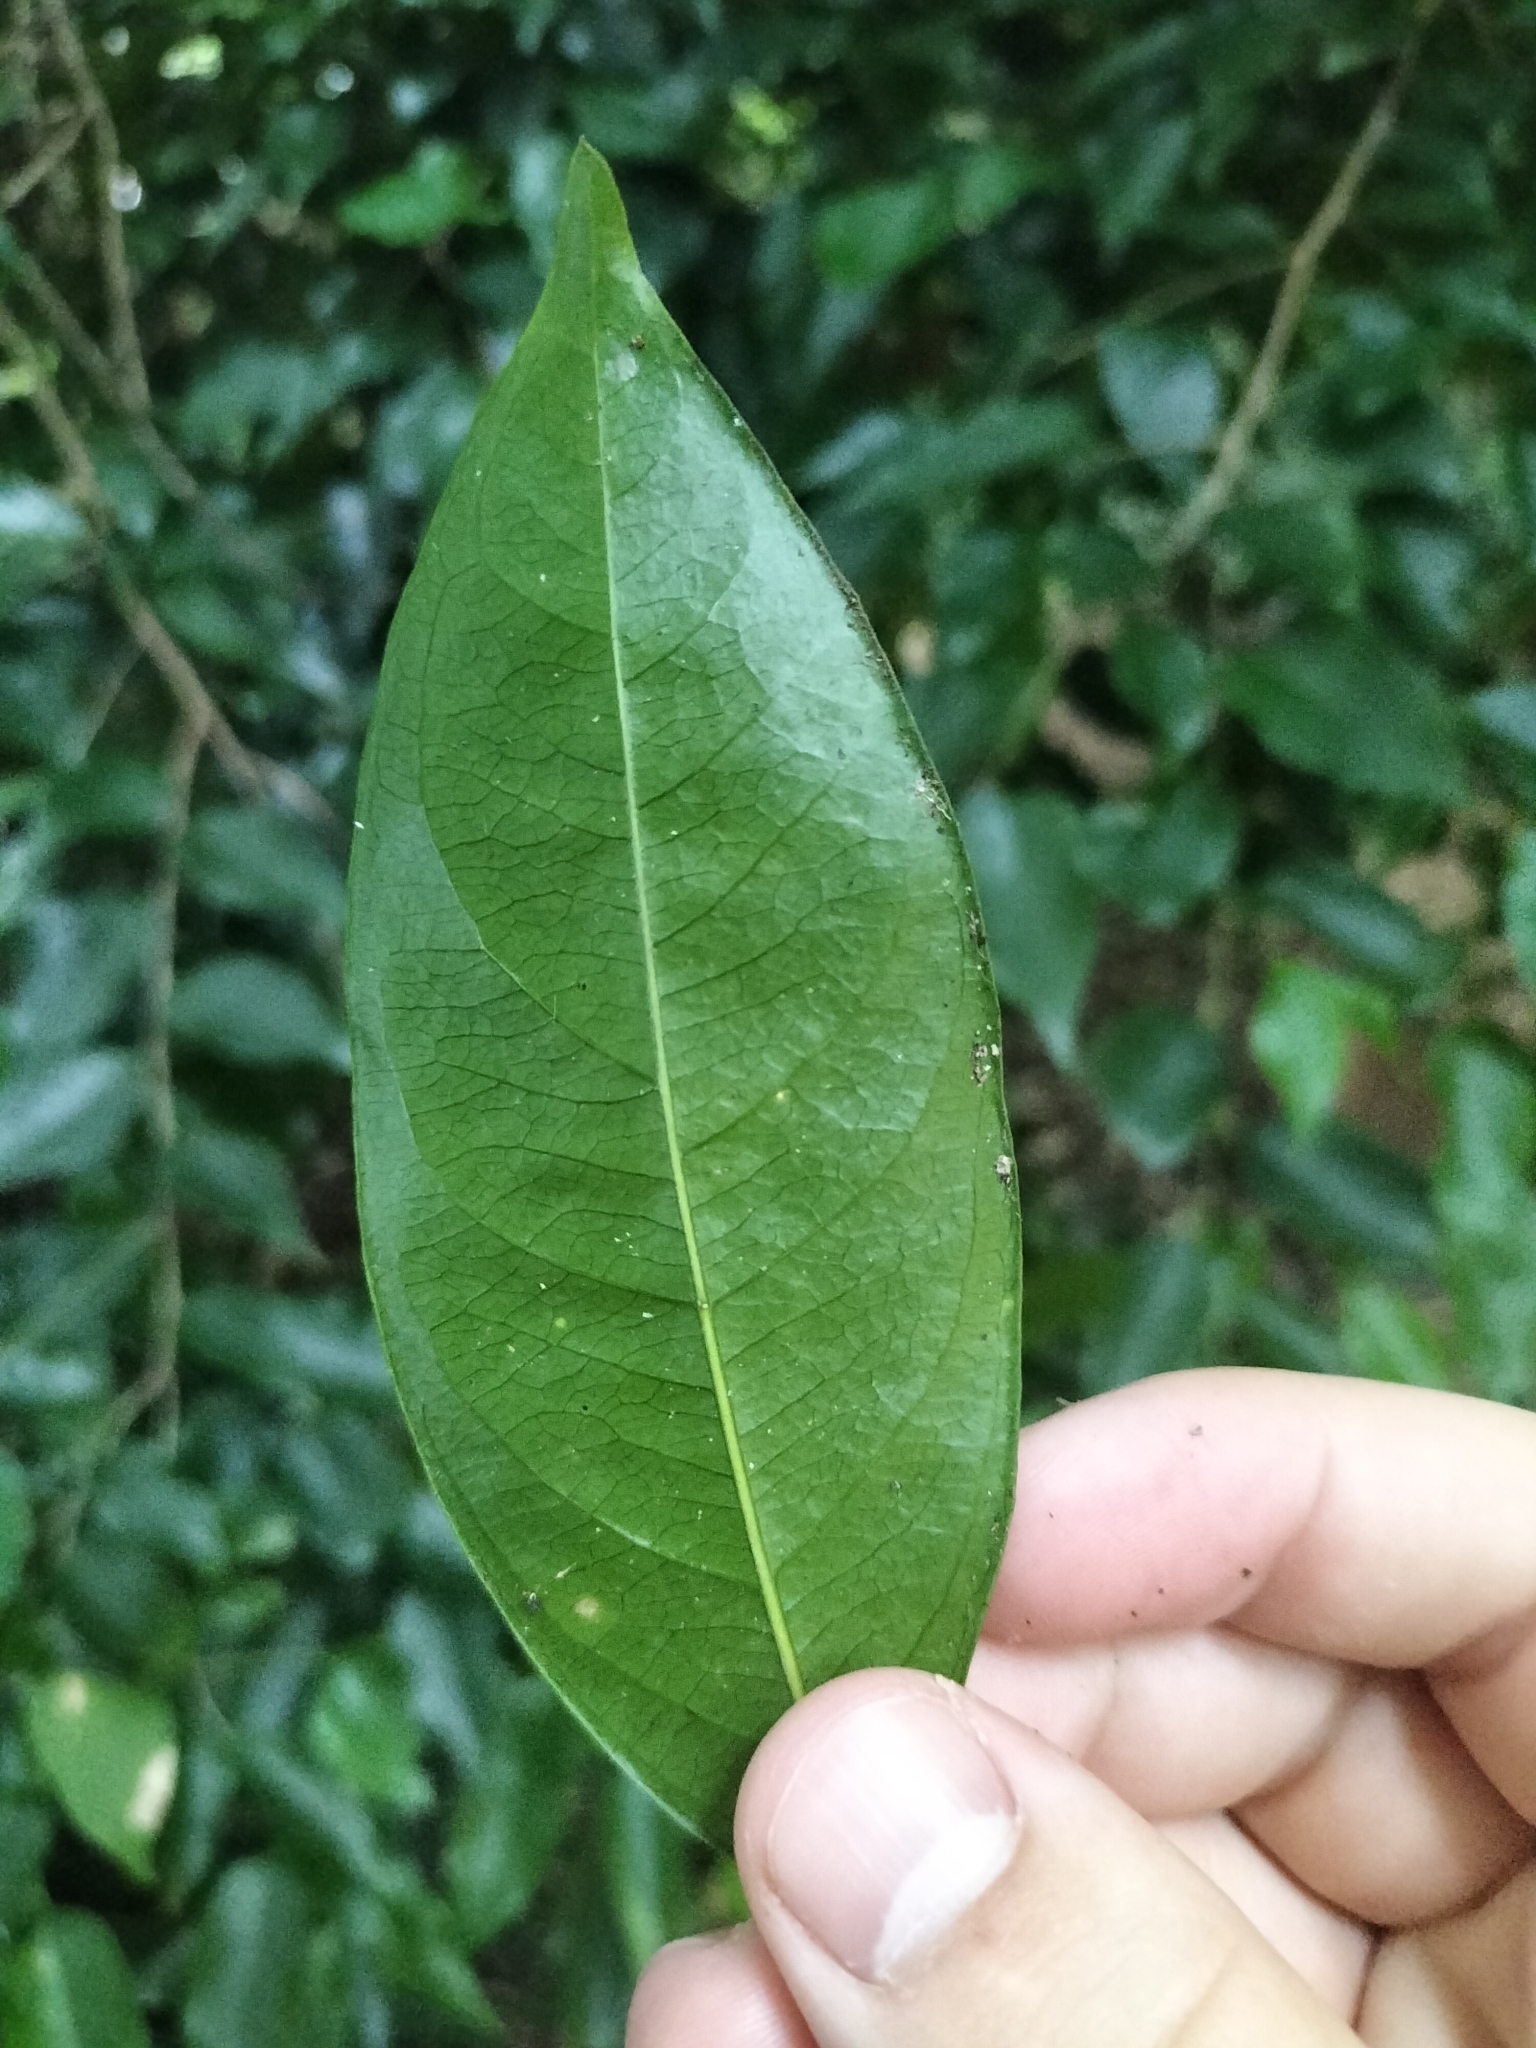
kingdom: Plantae
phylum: Tracheophyta
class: Magnoliopsida
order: Malvales
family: Thymelaeaceae
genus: Phaleria
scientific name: Phaleria clerodendron
